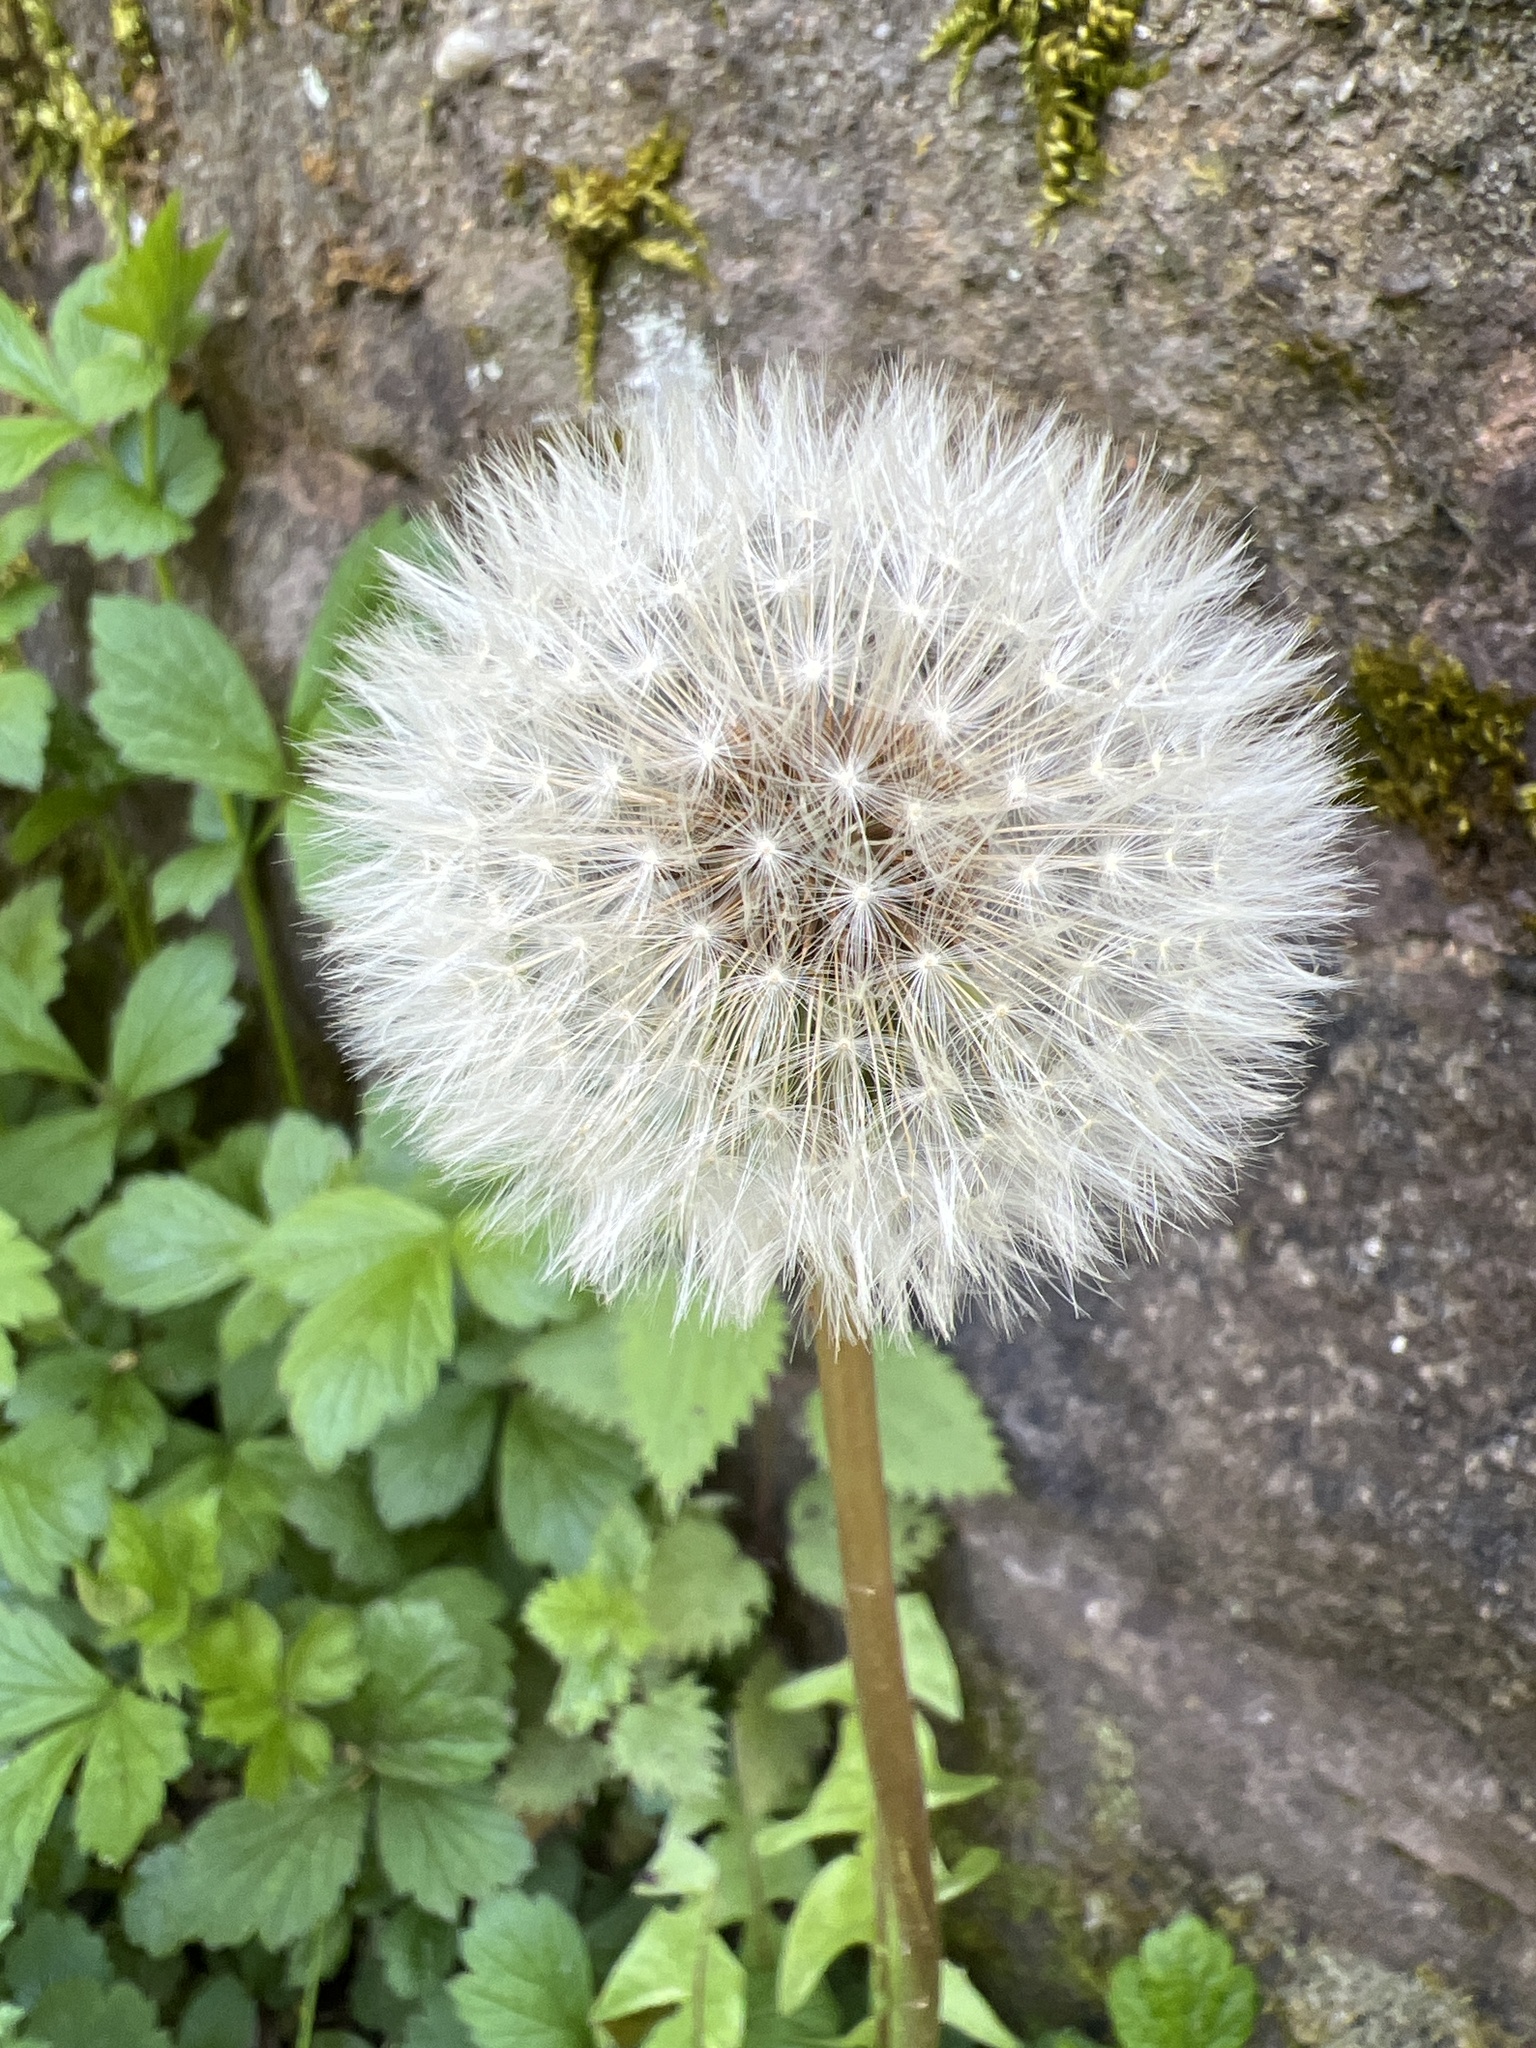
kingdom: Plantae
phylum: Tracheophyta
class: Magnoliopsida
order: Asterales
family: Asteraceae
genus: Taraxacum
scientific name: Taraxacum officinale
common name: Common dandelion
